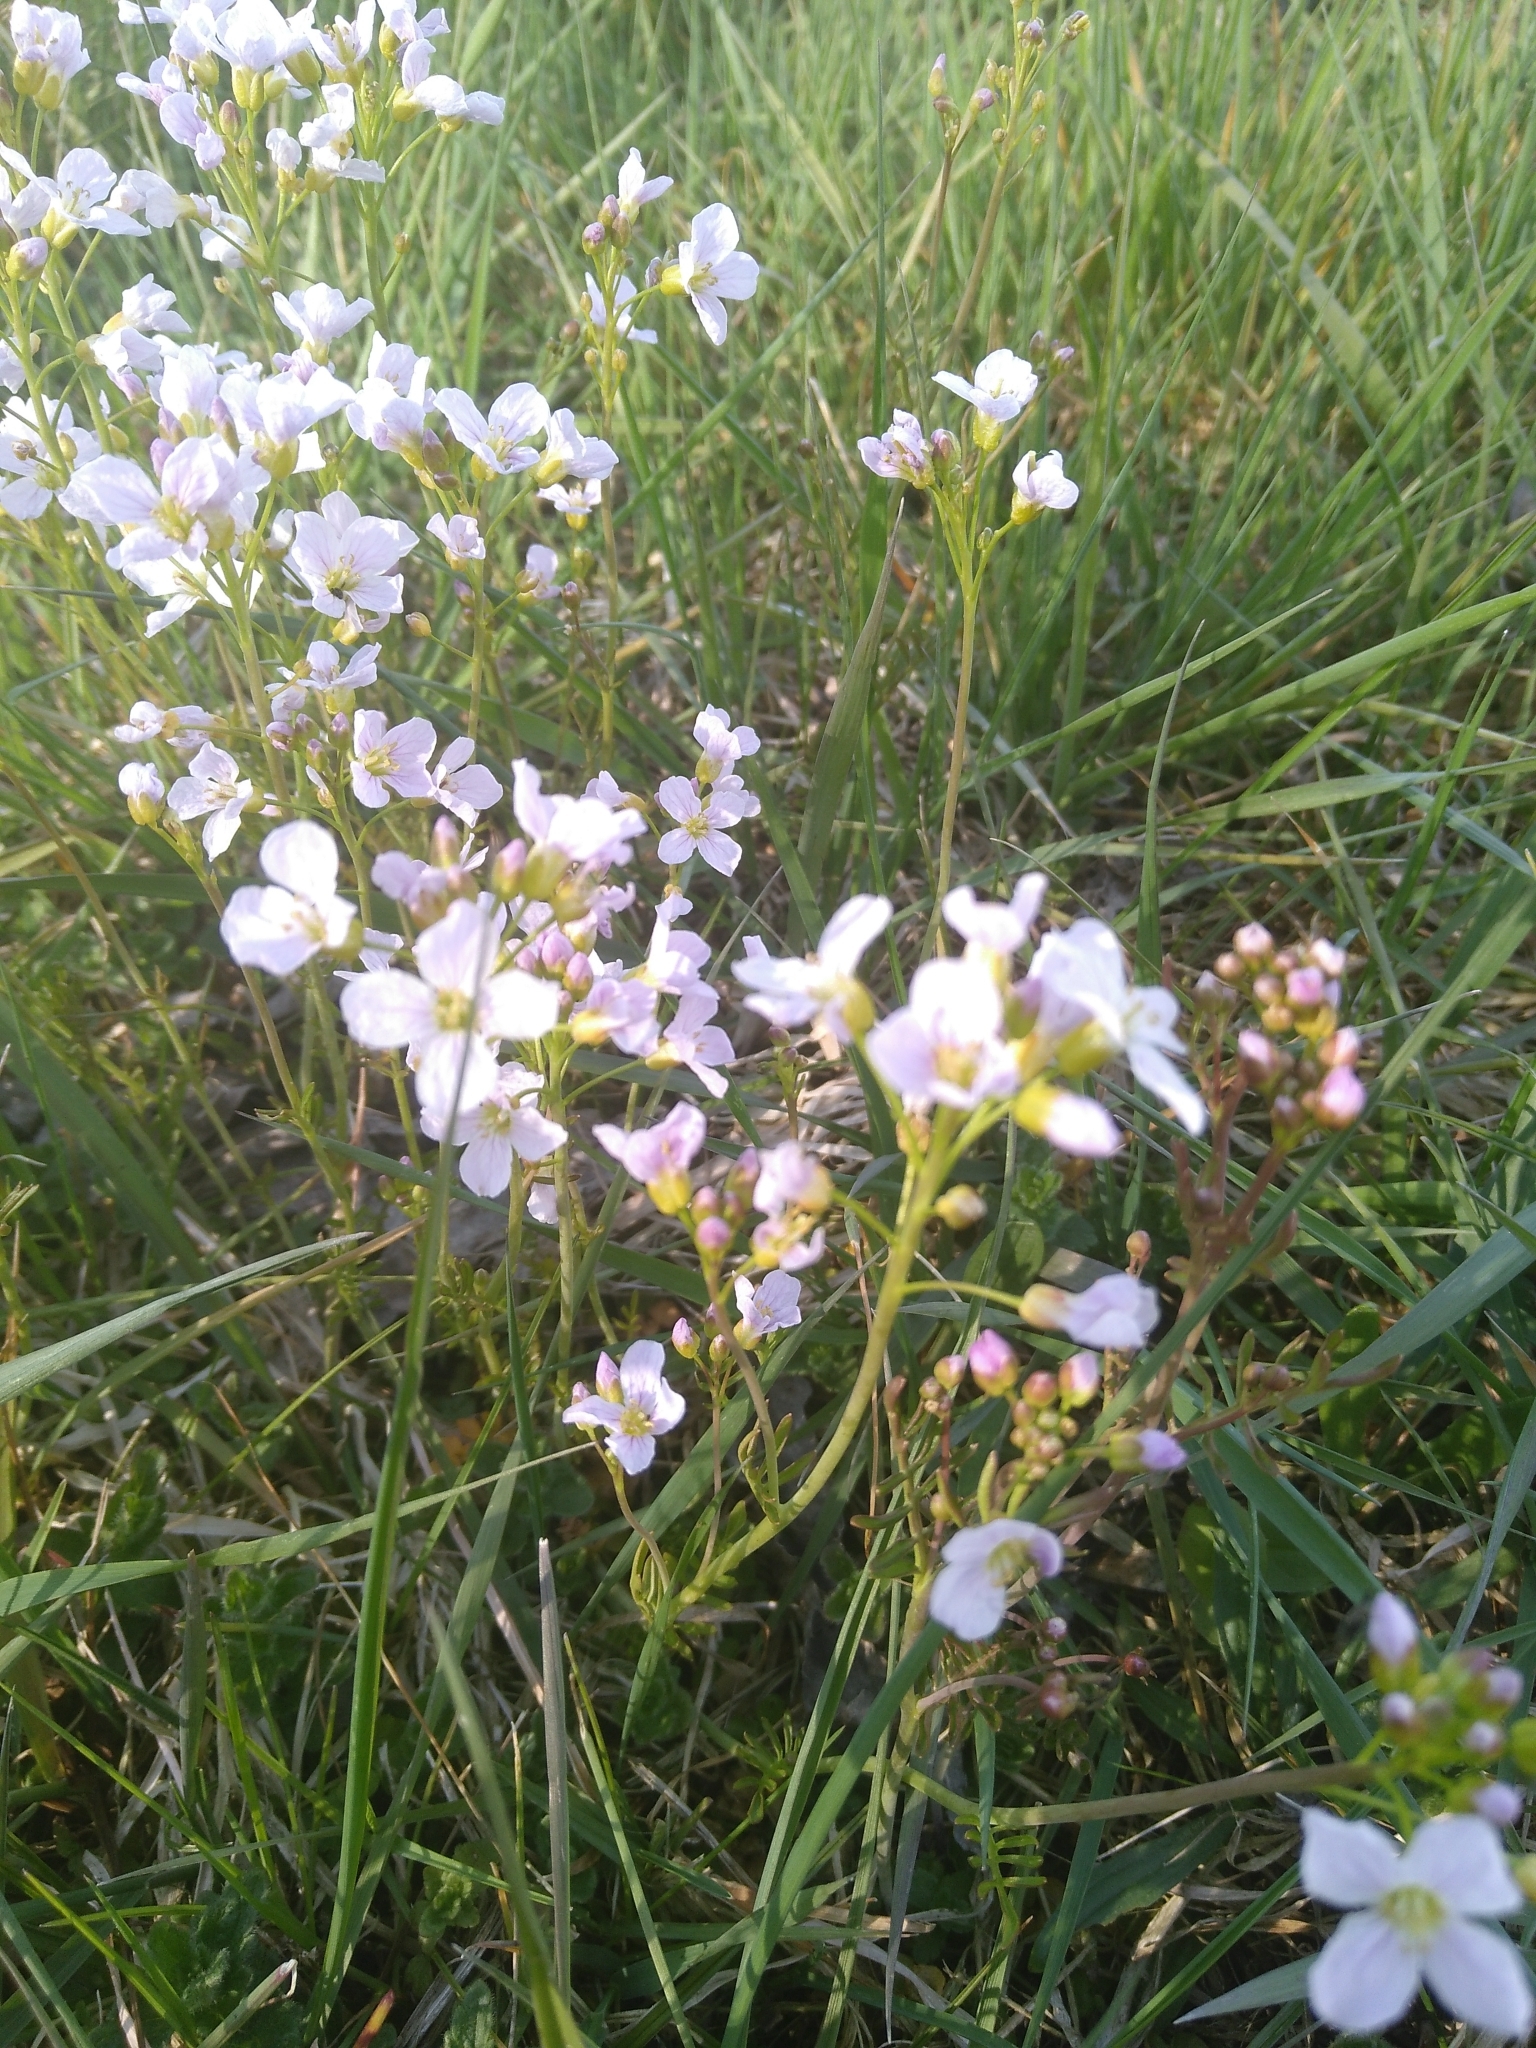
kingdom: Plantae
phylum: Tracheophyta
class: Magnoliopsida
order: Brassicales
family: Brassicaceae
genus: Cardamine
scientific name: Cardamine pratensis
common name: Cuckoo flower
